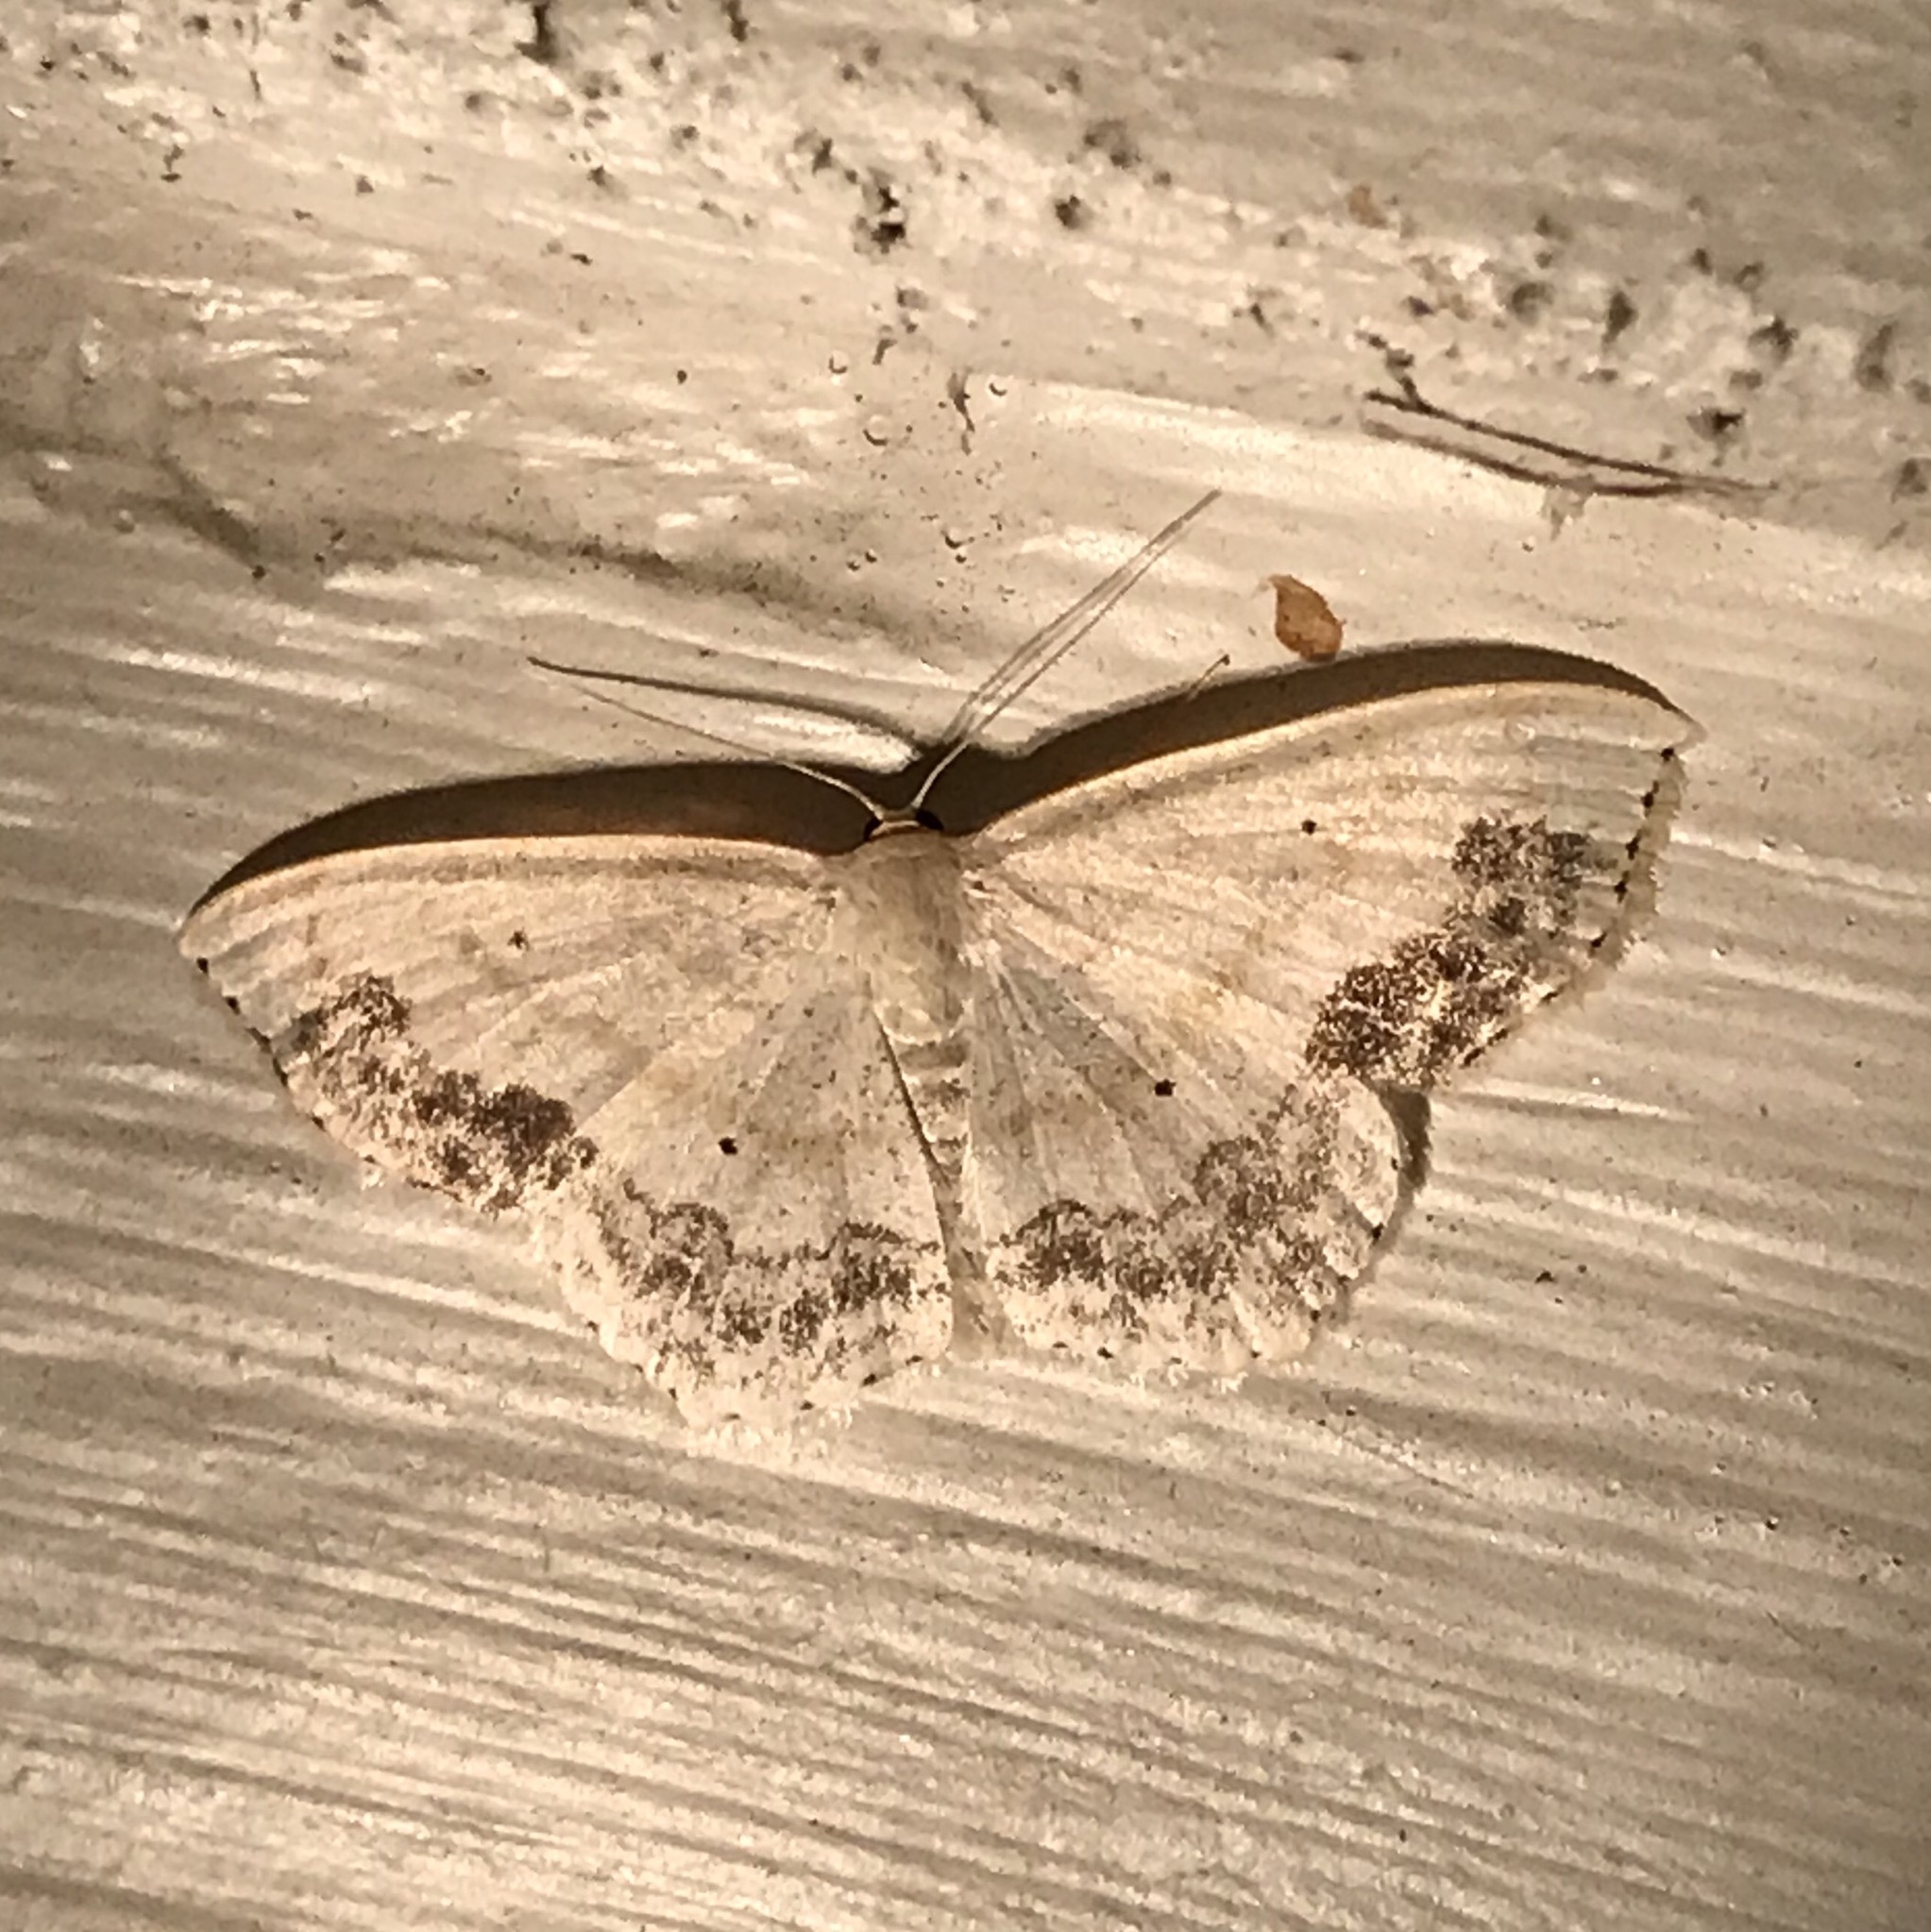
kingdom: Animalia
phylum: Arthropoda
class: Insecta
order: Lepidoptera
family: Geometridae
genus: Scopula
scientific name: Scopula limboundata
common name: Large lace border
